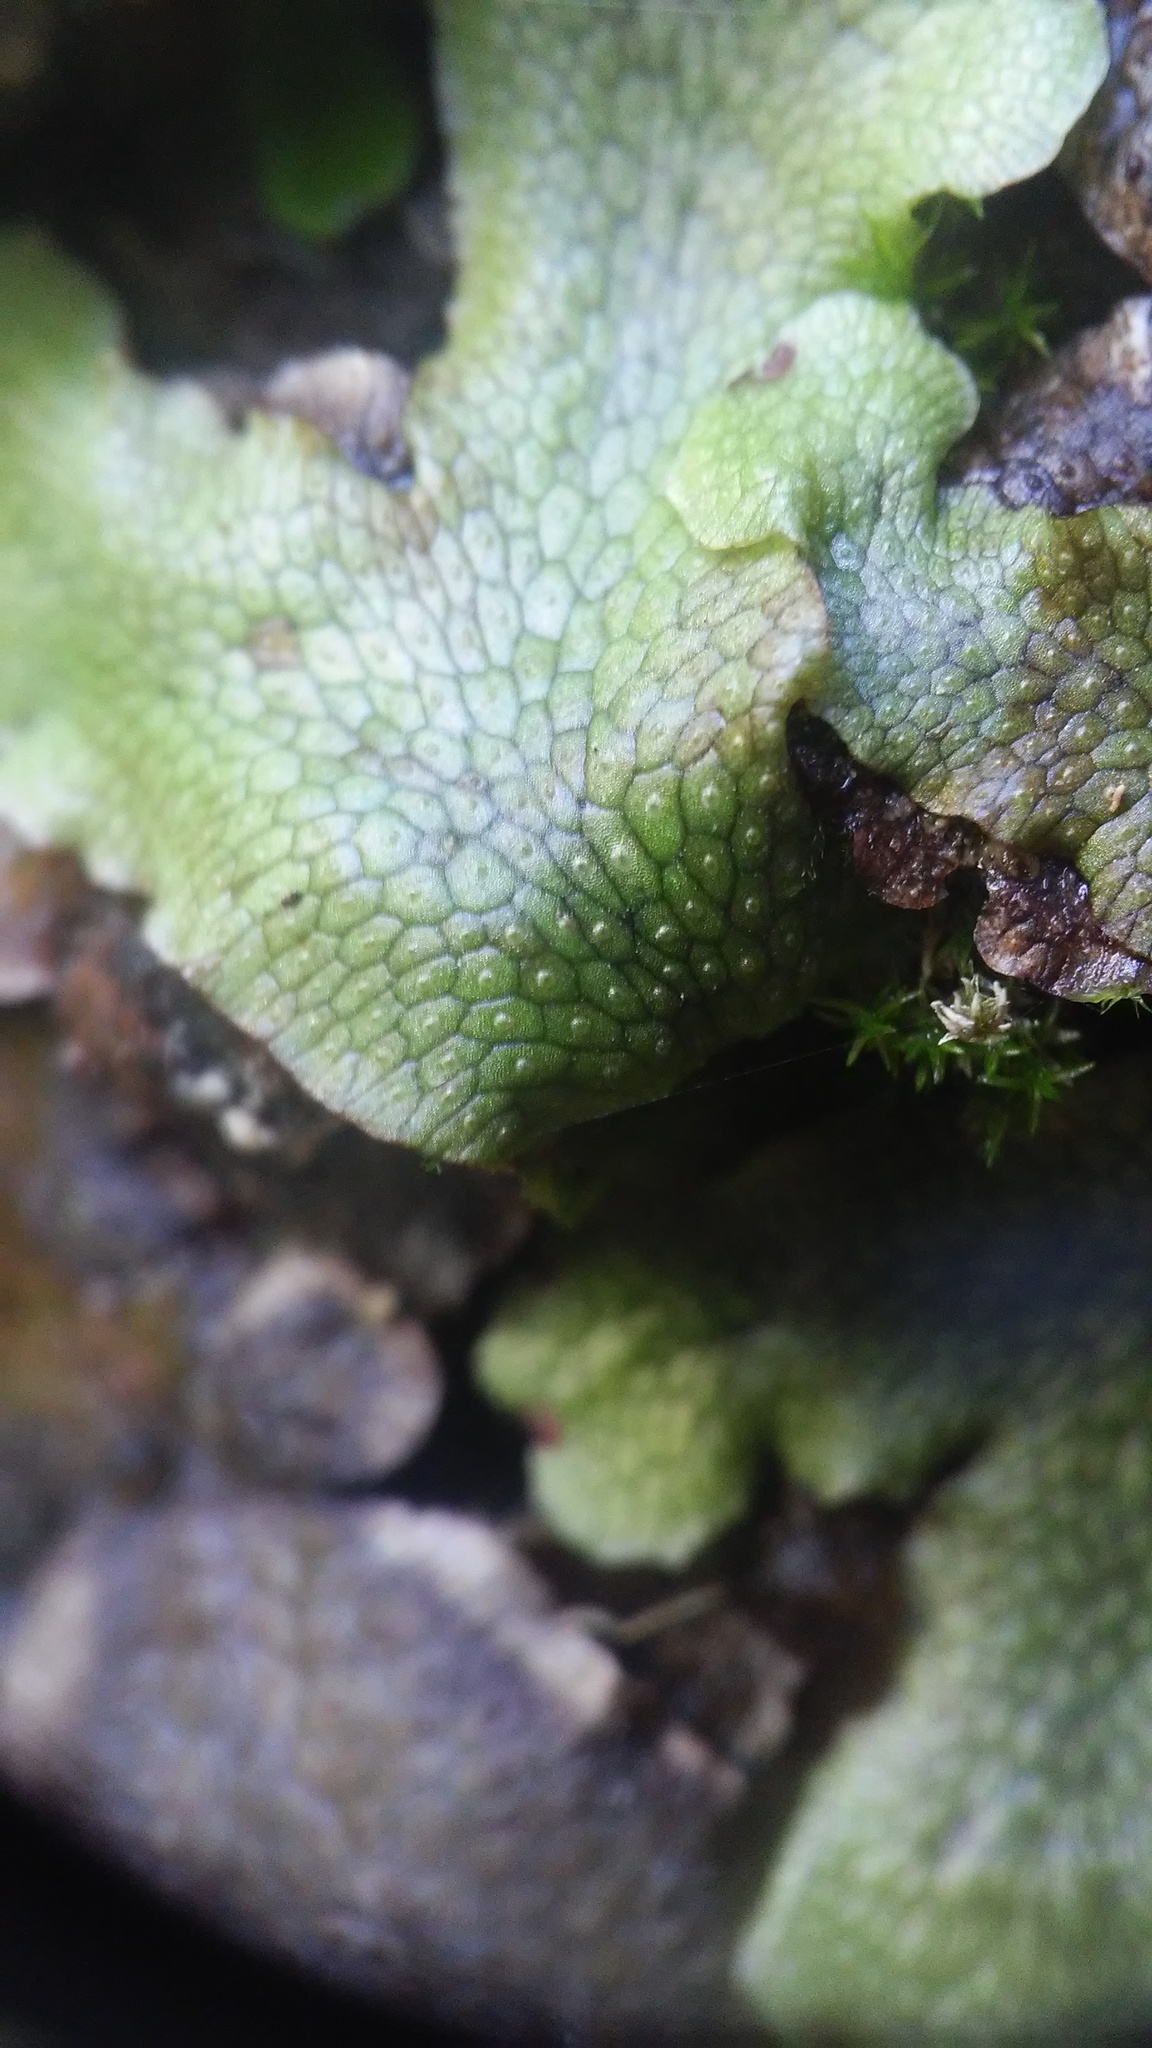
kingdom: Plantae
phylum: Marchantiophyta
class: Marchantiopsida
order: Marchantiales
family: Conocephalaceae
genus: Conocephalum
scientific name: Conocephalum salebrosum
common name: Cat-tongue liverwort
